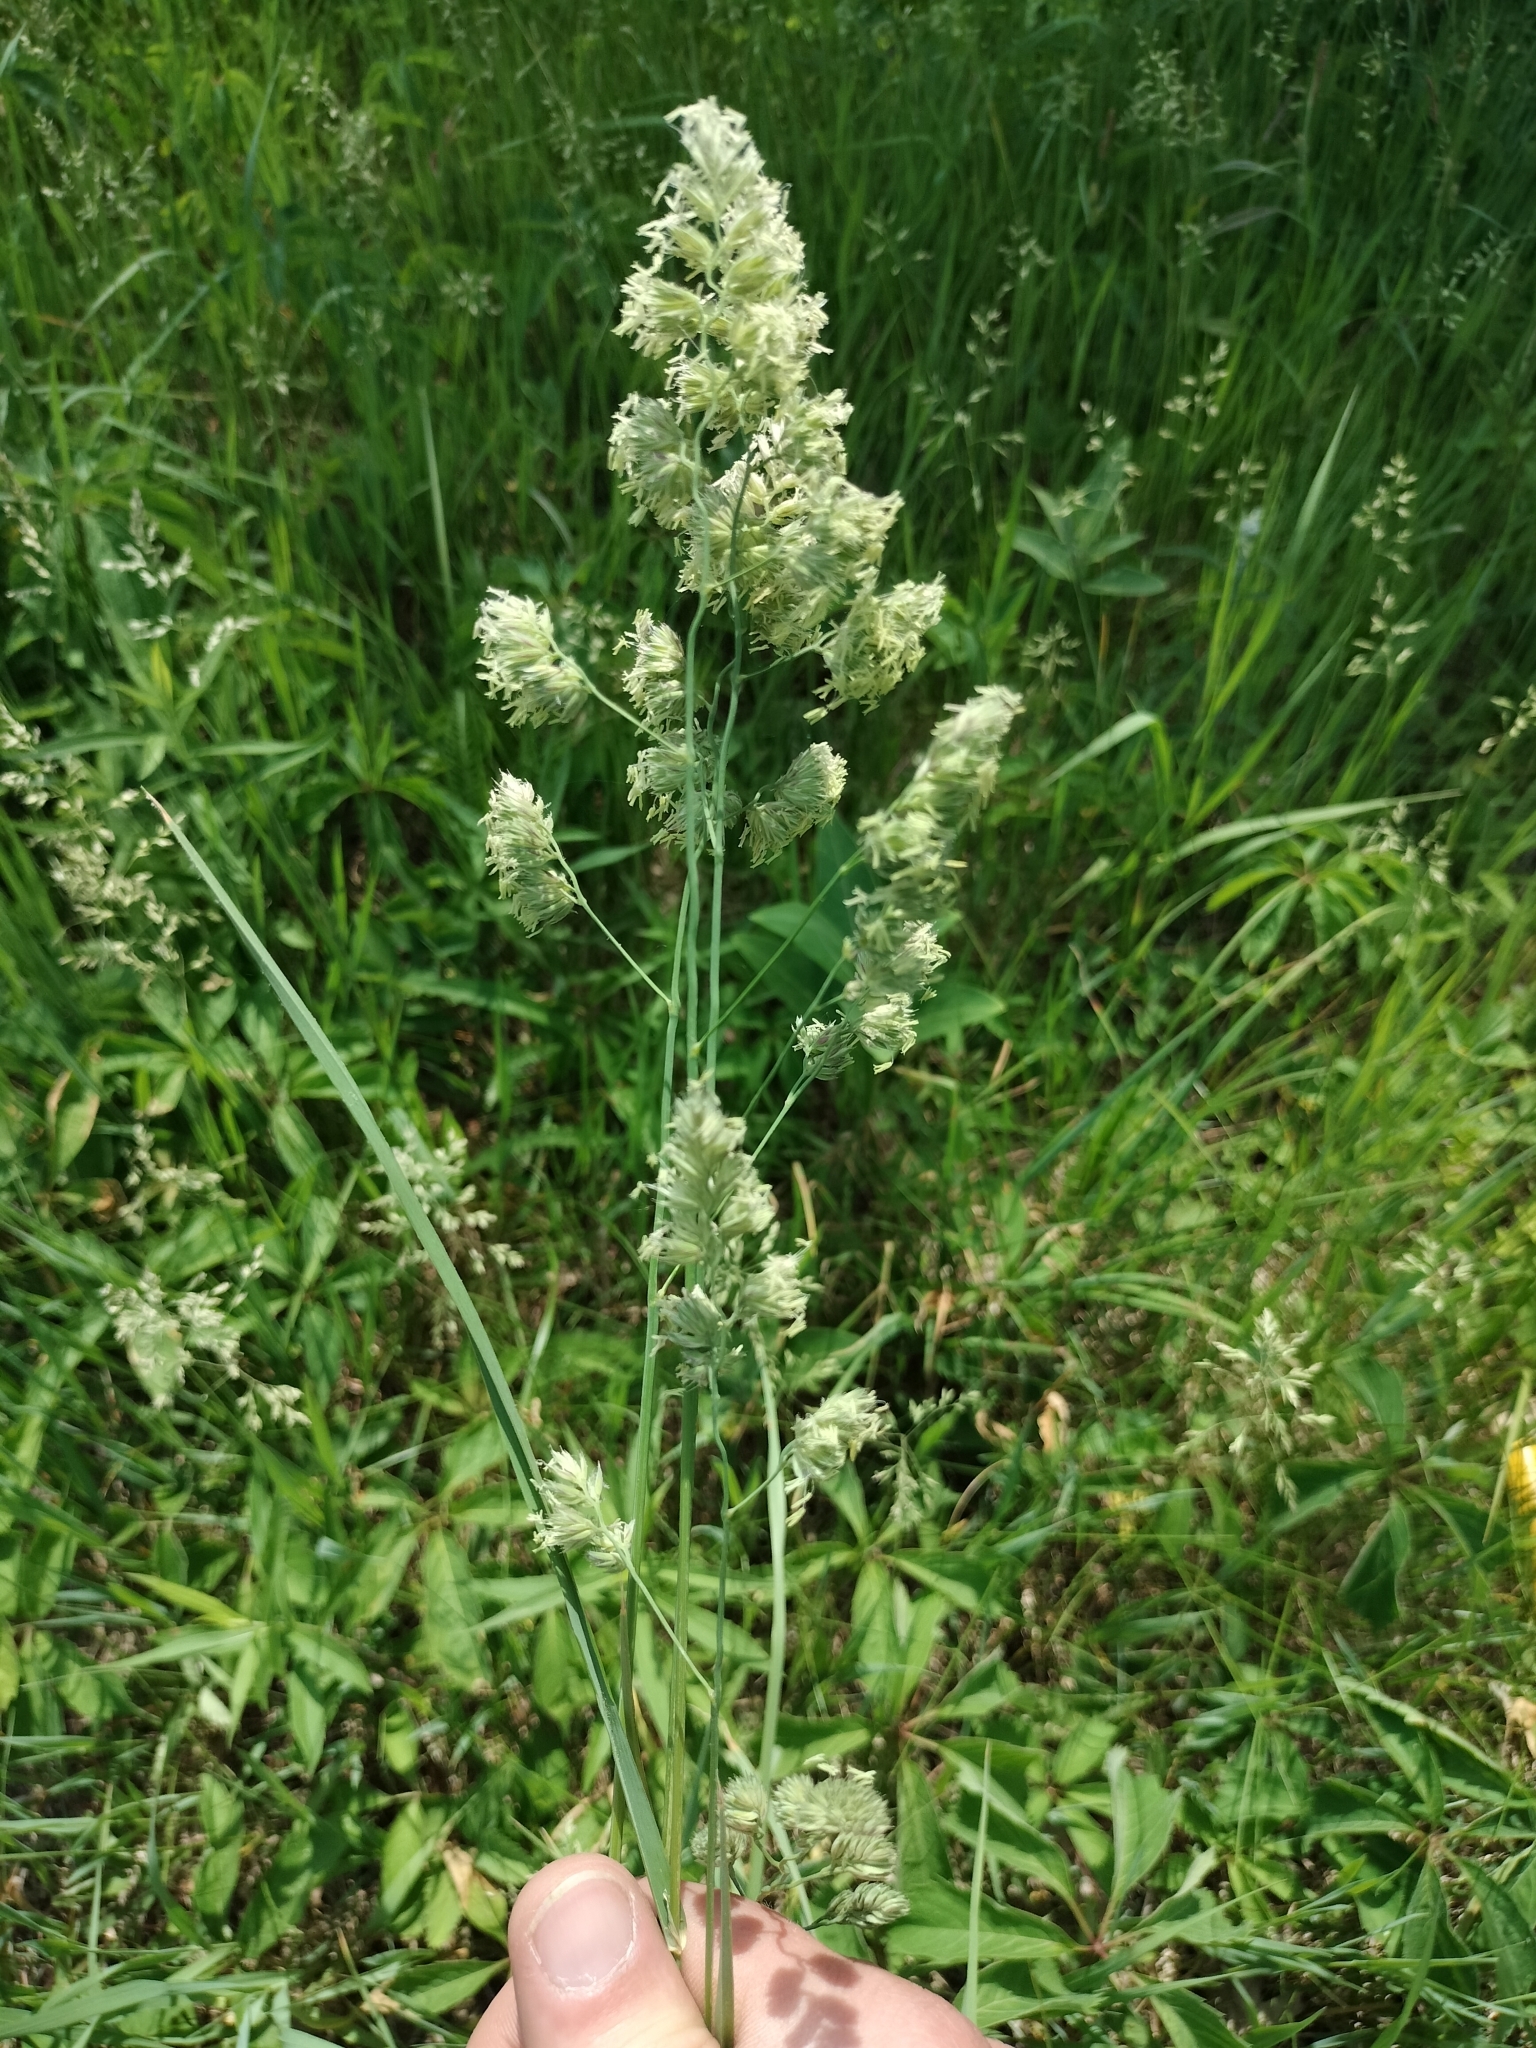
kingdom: Plantae
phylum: Tracheophyta
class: Liliopsida
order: Poales
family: Poaceae
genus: Dactylis
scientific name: Dactylis glomerata
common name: Orchardgrass
